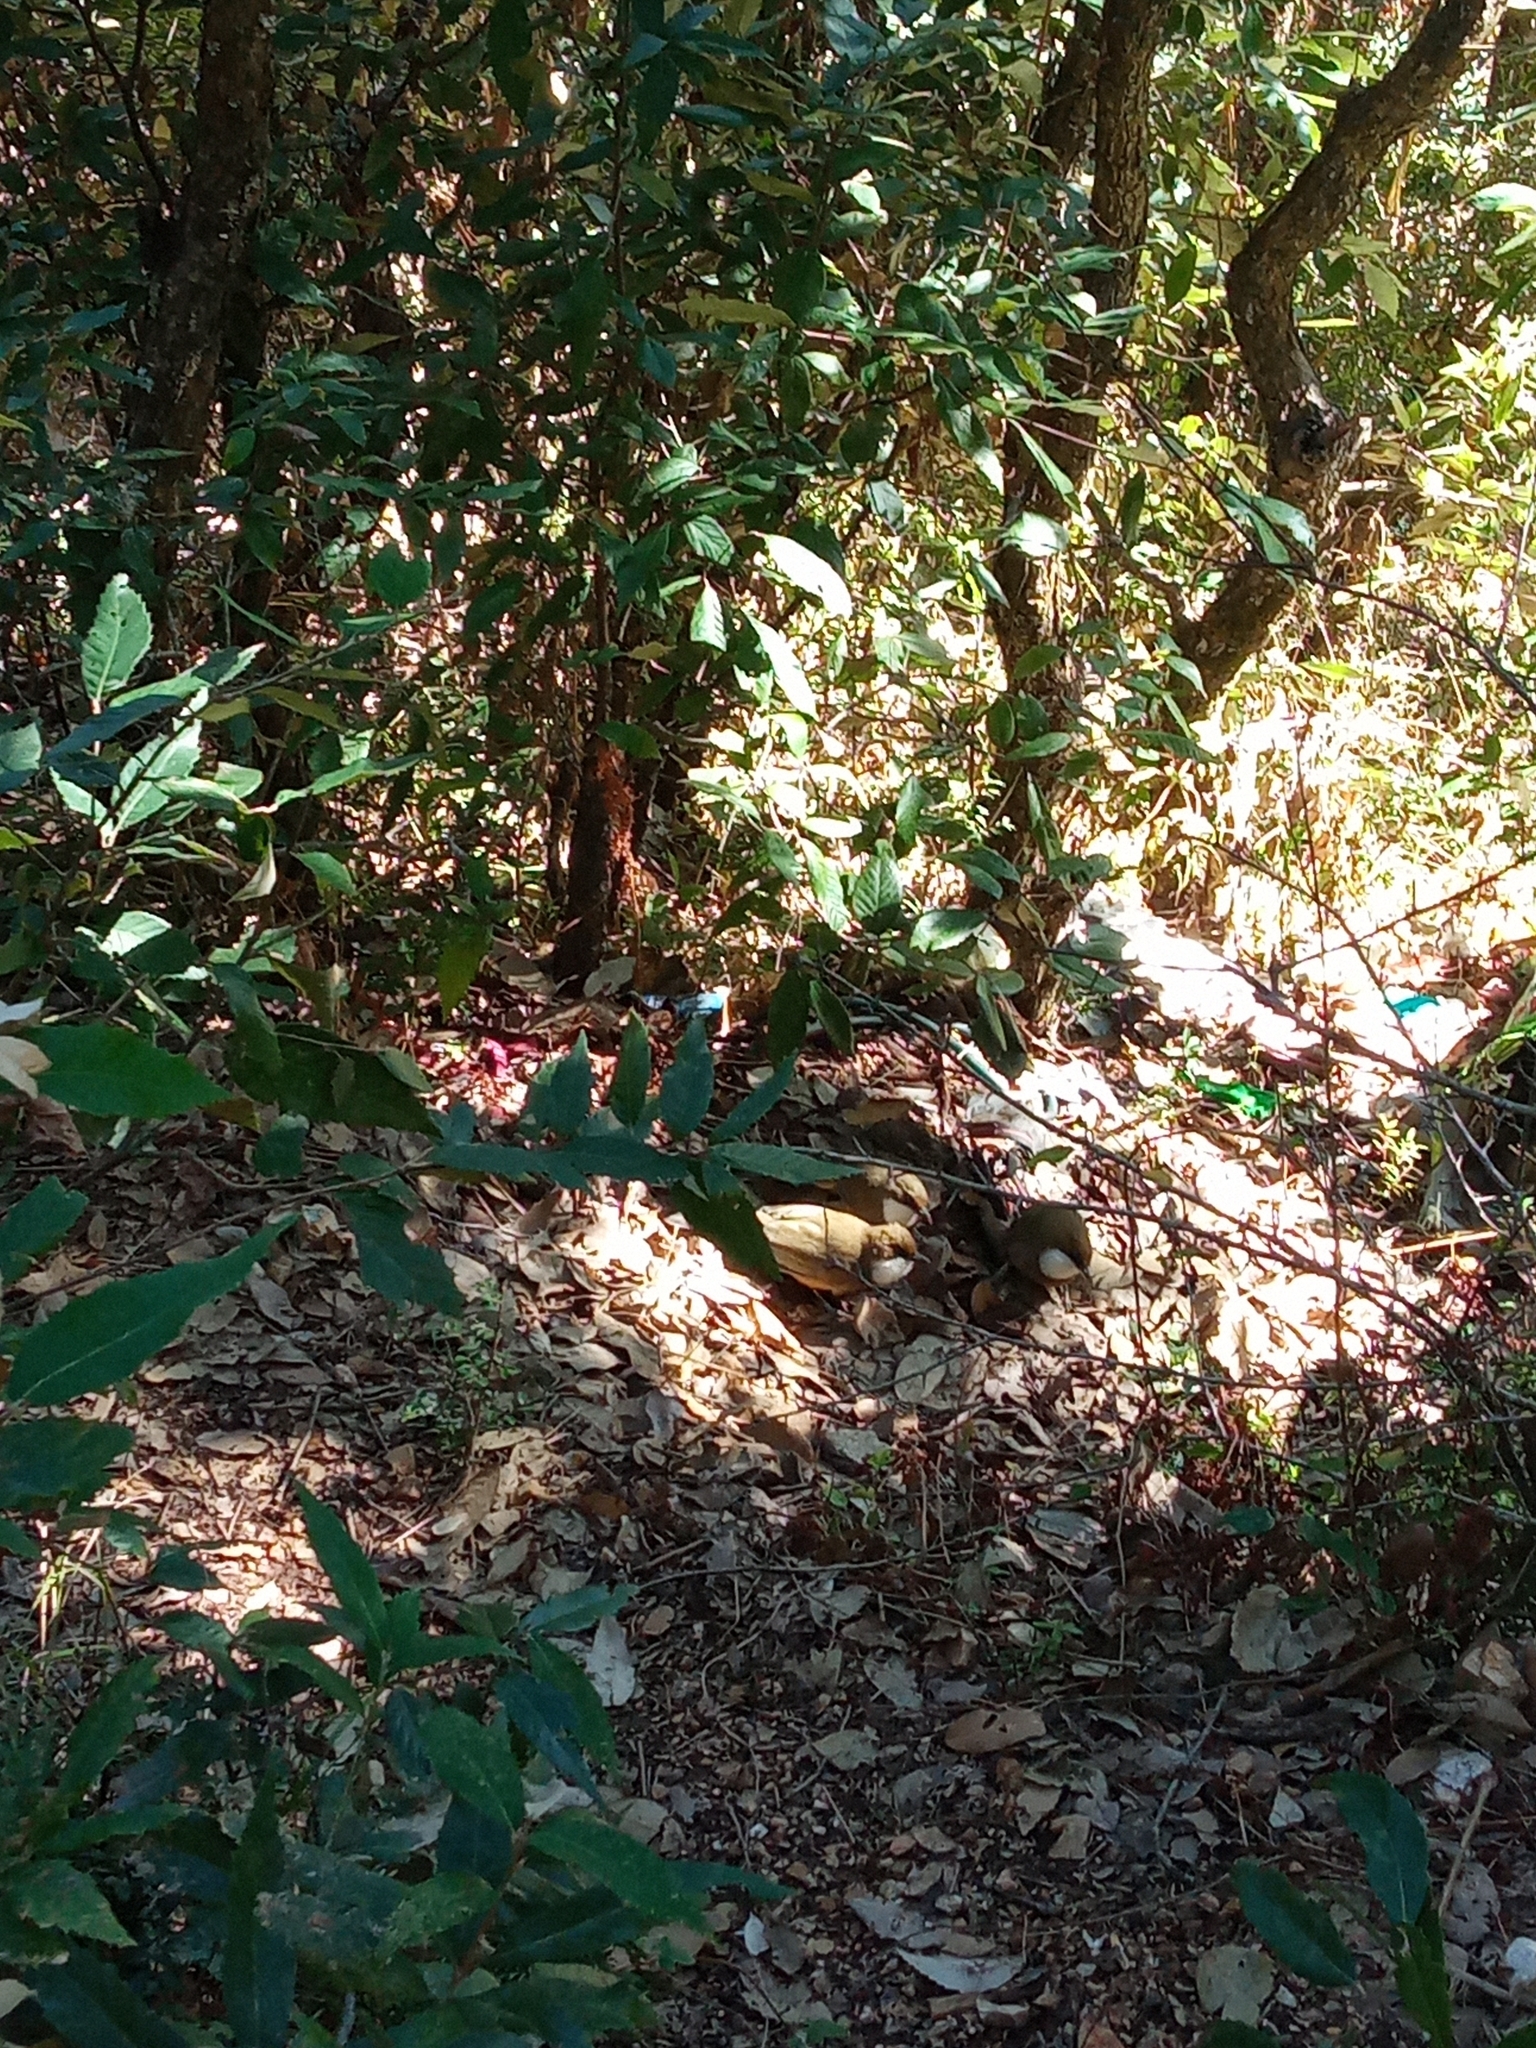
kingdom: Animalia
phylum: Chordata
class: Aves
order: Passeriformes
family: Leiothrichidae
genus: Garrulax
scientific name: Garrulax albogularis
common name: White-throated laughingthrush
